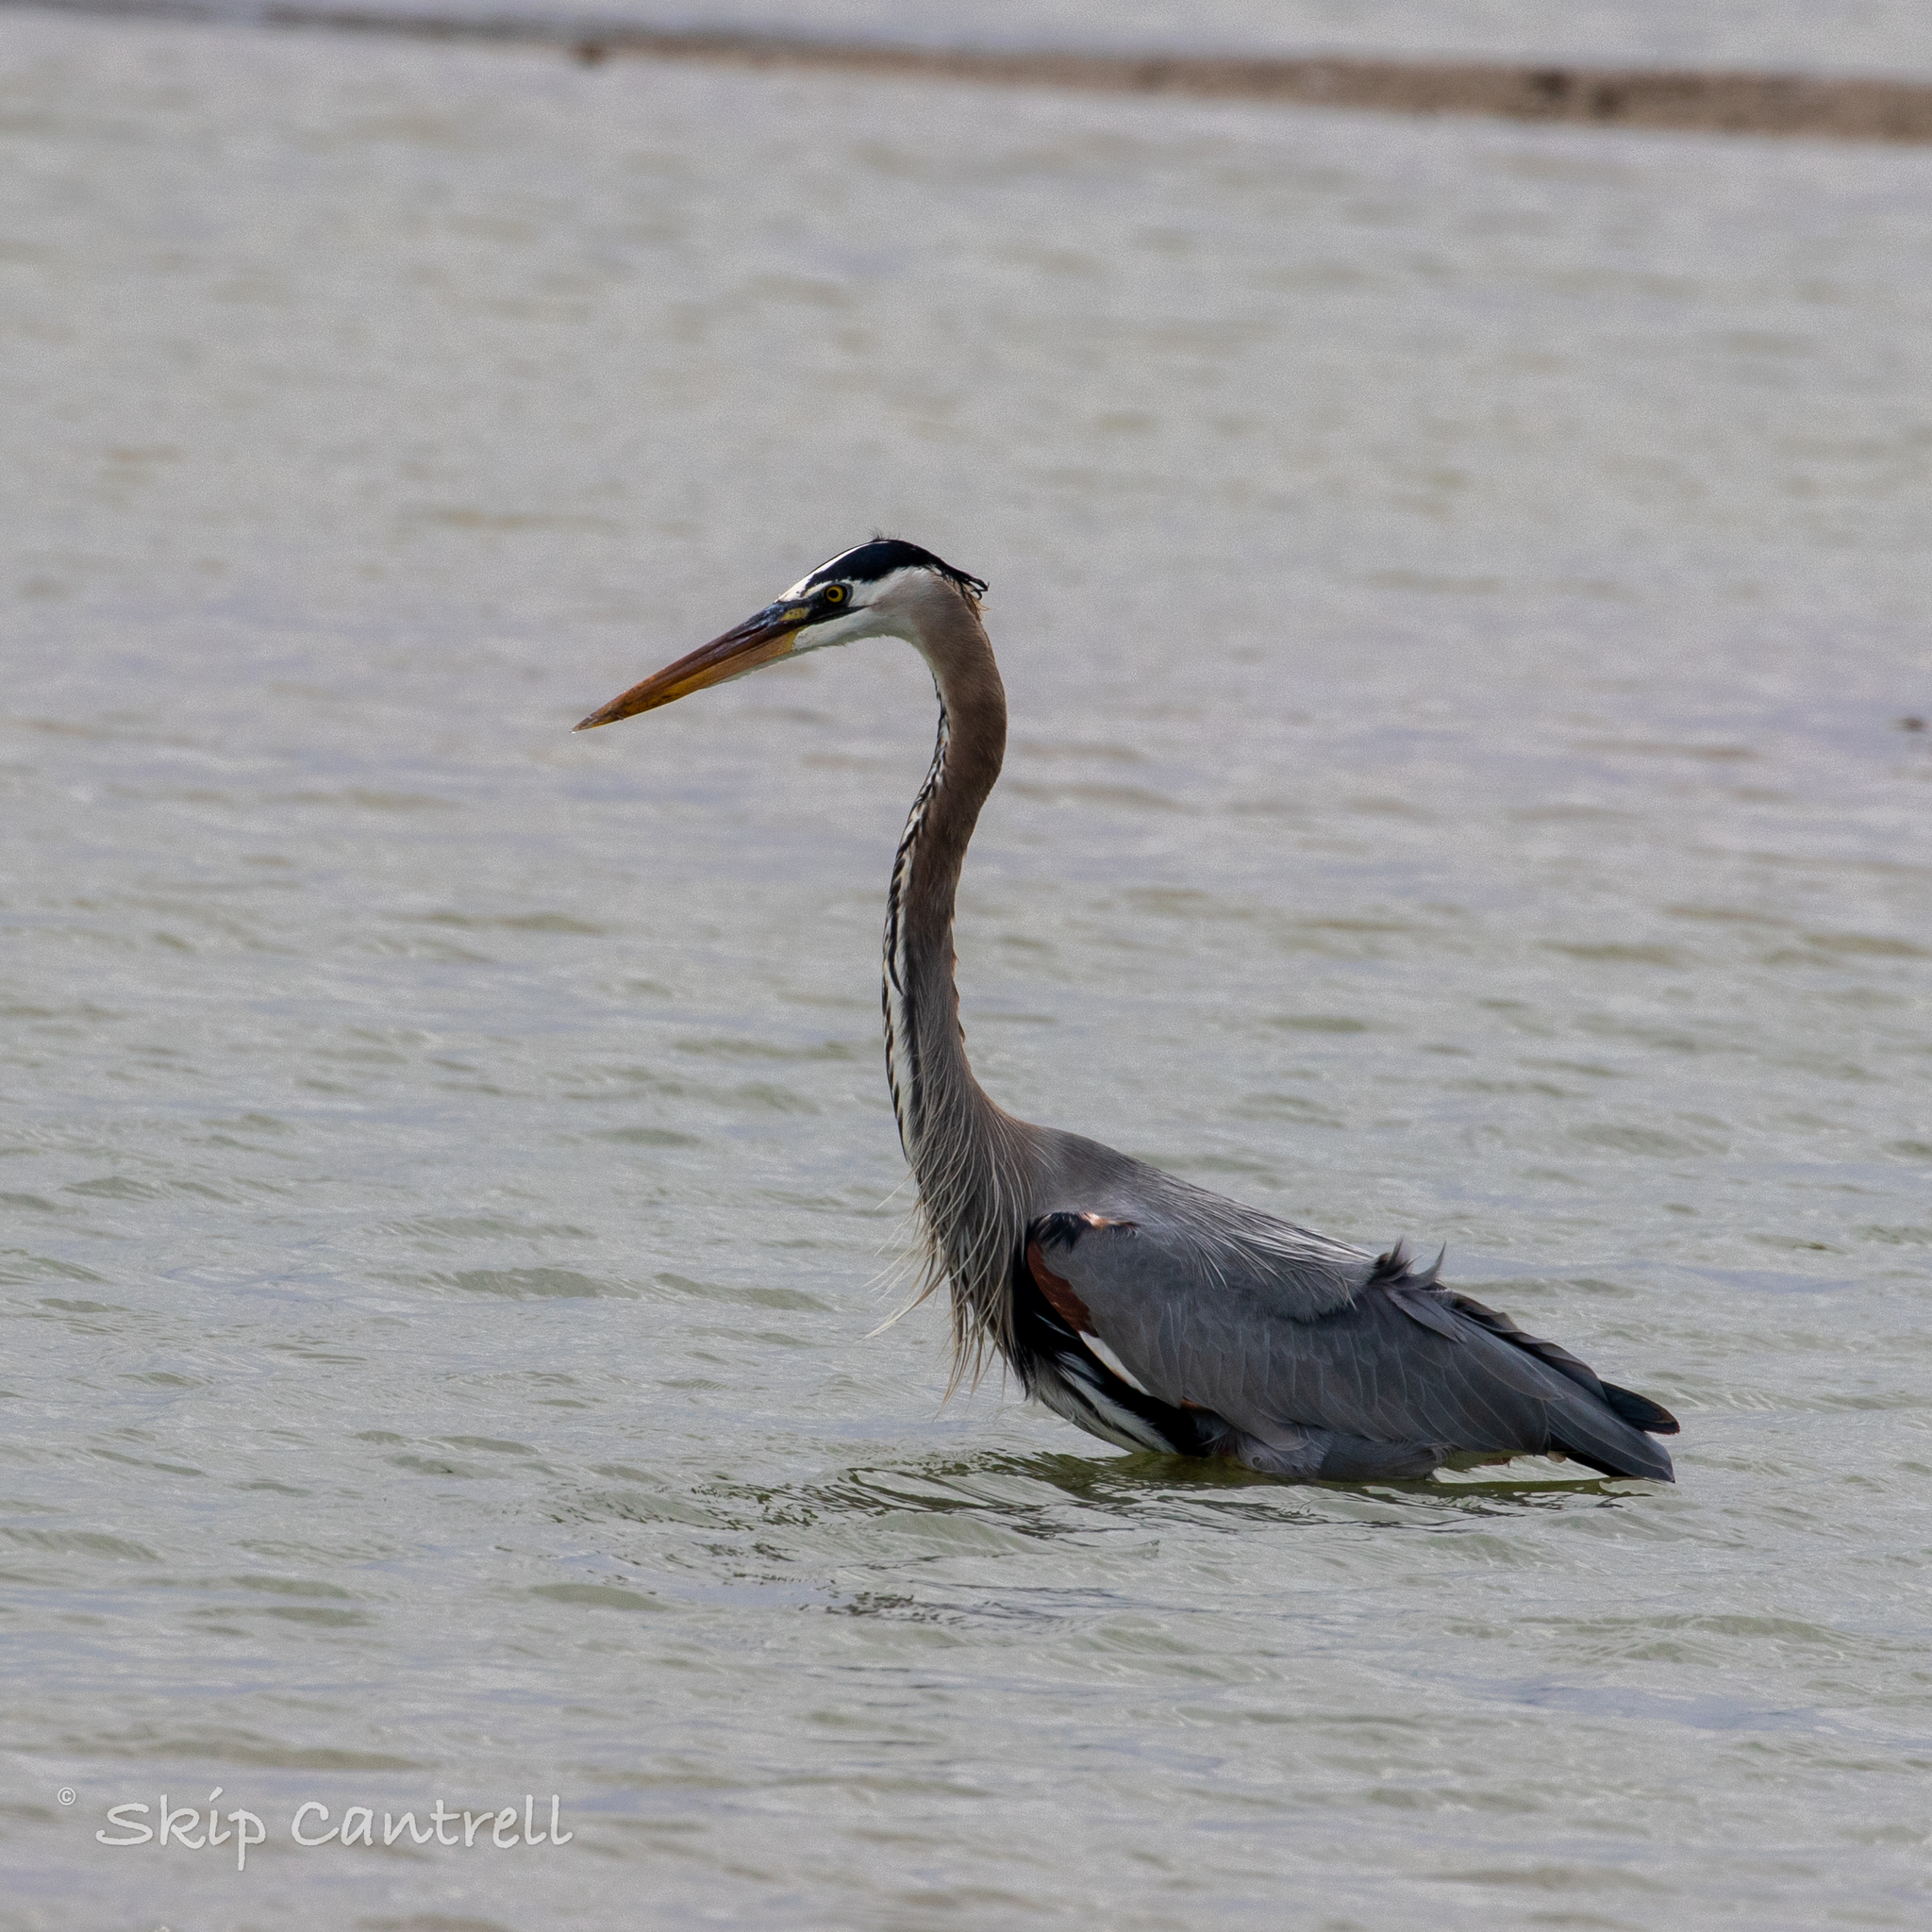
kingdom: Animalia
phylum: Chordata
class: Aves
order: Pelecaniformes
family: Ardeidae
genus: Ardea
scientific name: Ardea herodias
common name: Great blue heron
